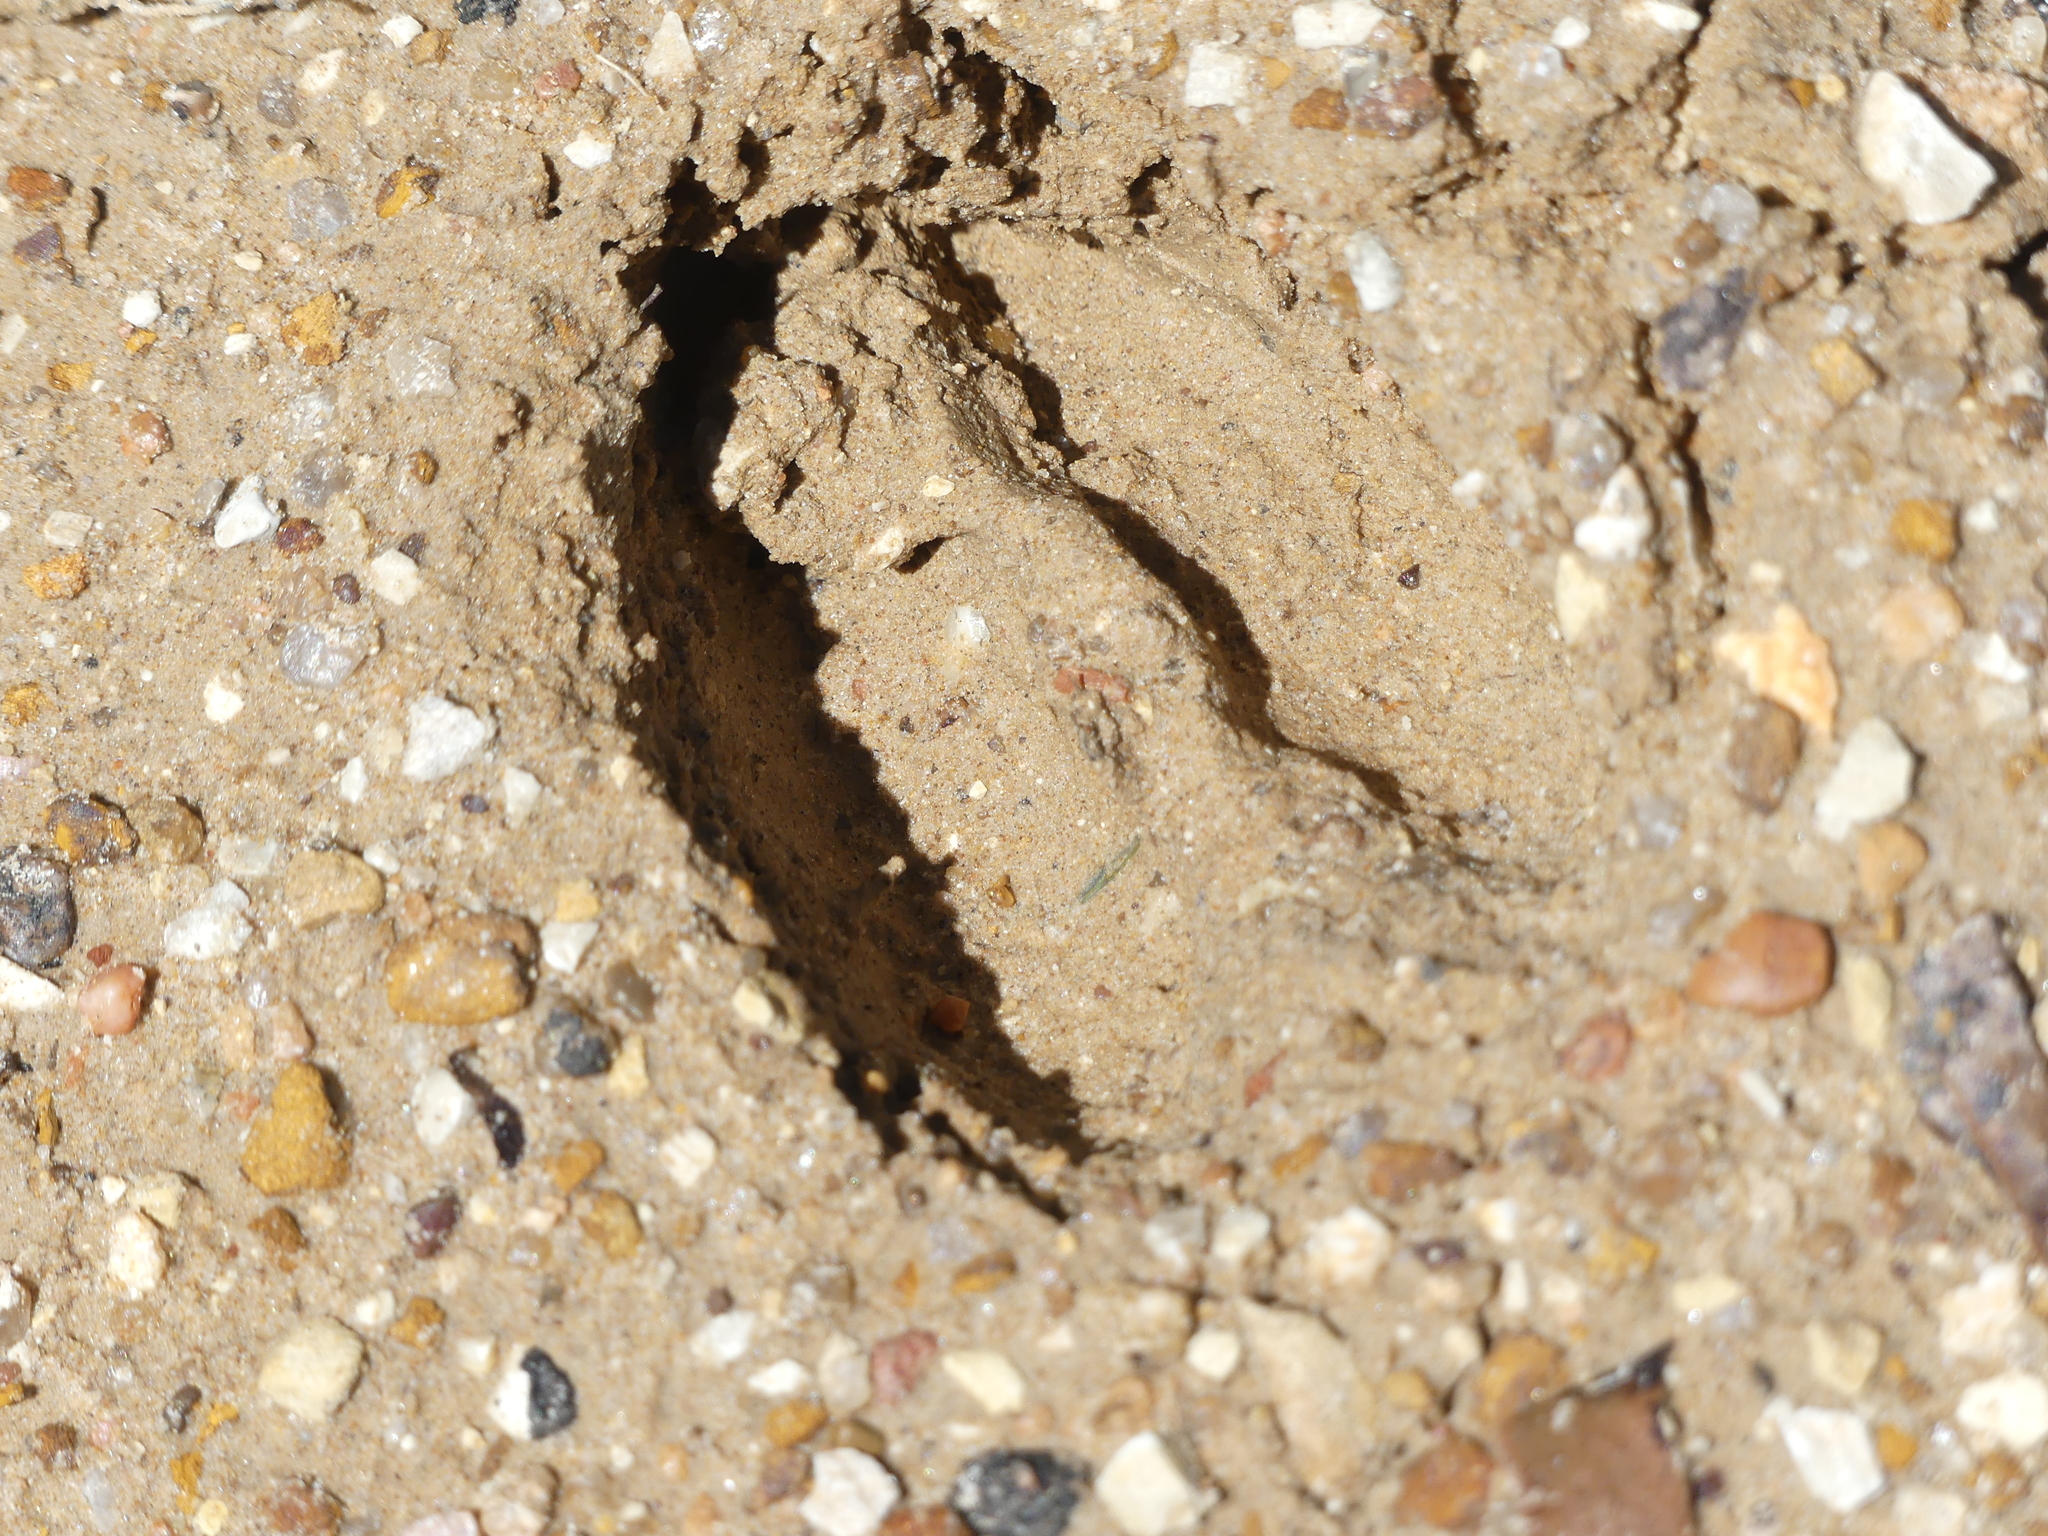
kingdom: Animalia
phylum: Chordata
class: Mammalia
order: Artiodactyla
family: Cervidae
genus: Odocoileus
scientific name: Odocoileus virginianus
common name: White-tailed deer
